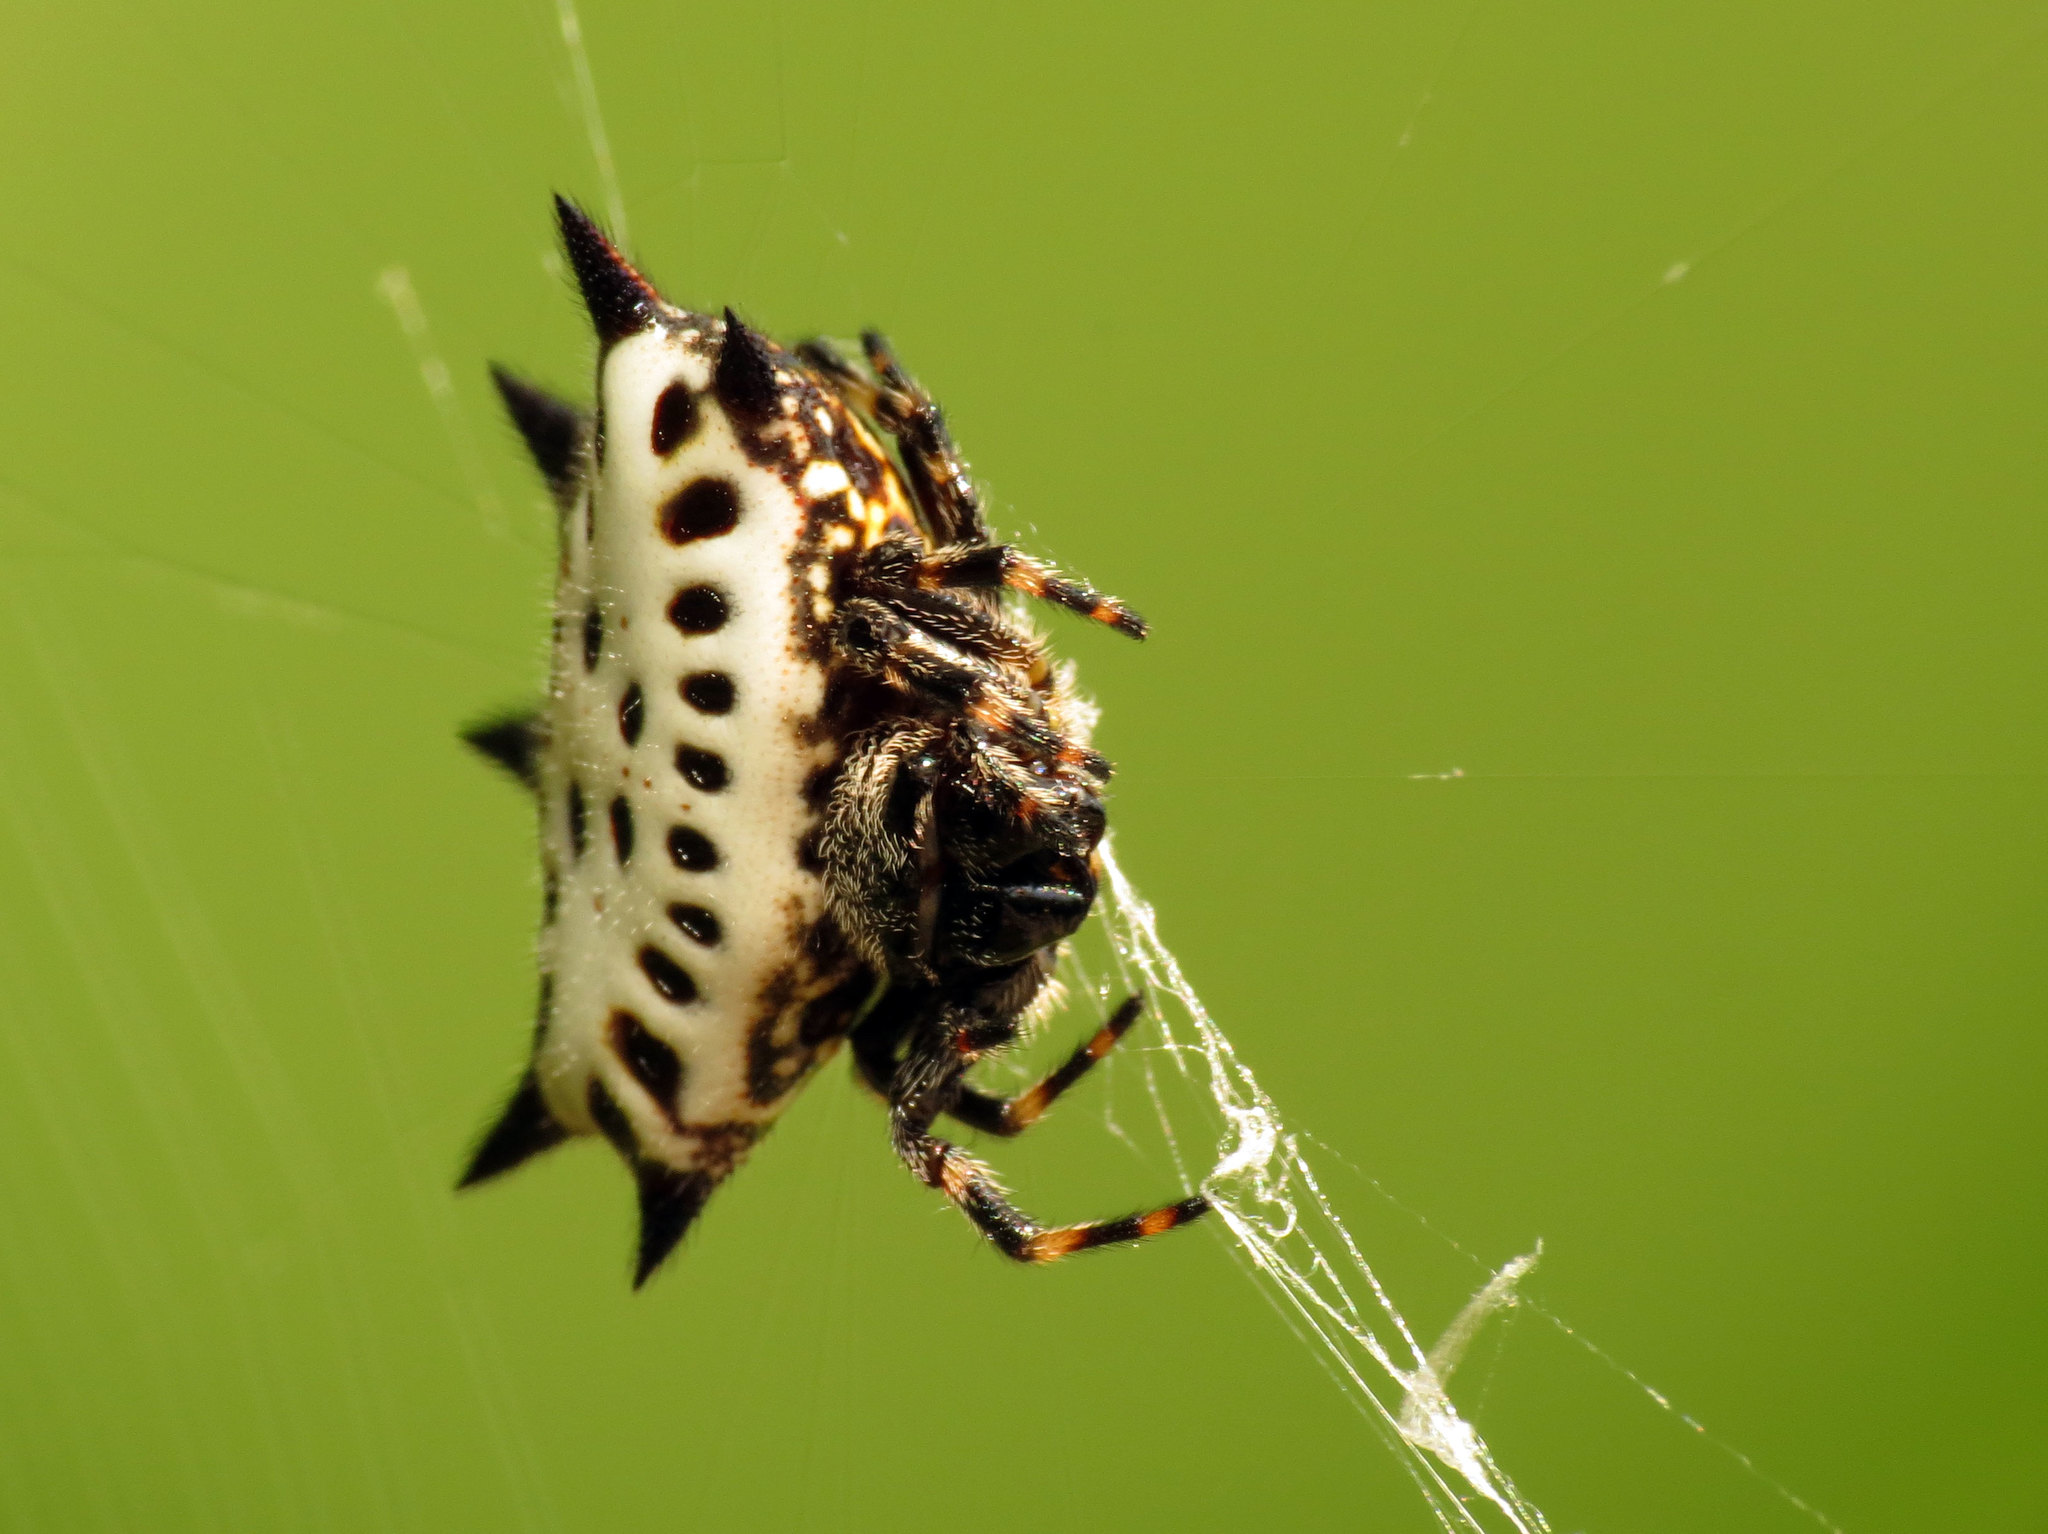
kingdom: Animalia
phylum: Arthropoda
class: Arachnida
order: Araneae
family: Araneidae
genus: Gasteracantha
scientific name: Gasteracantha cancriformis
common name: Orb weavers
